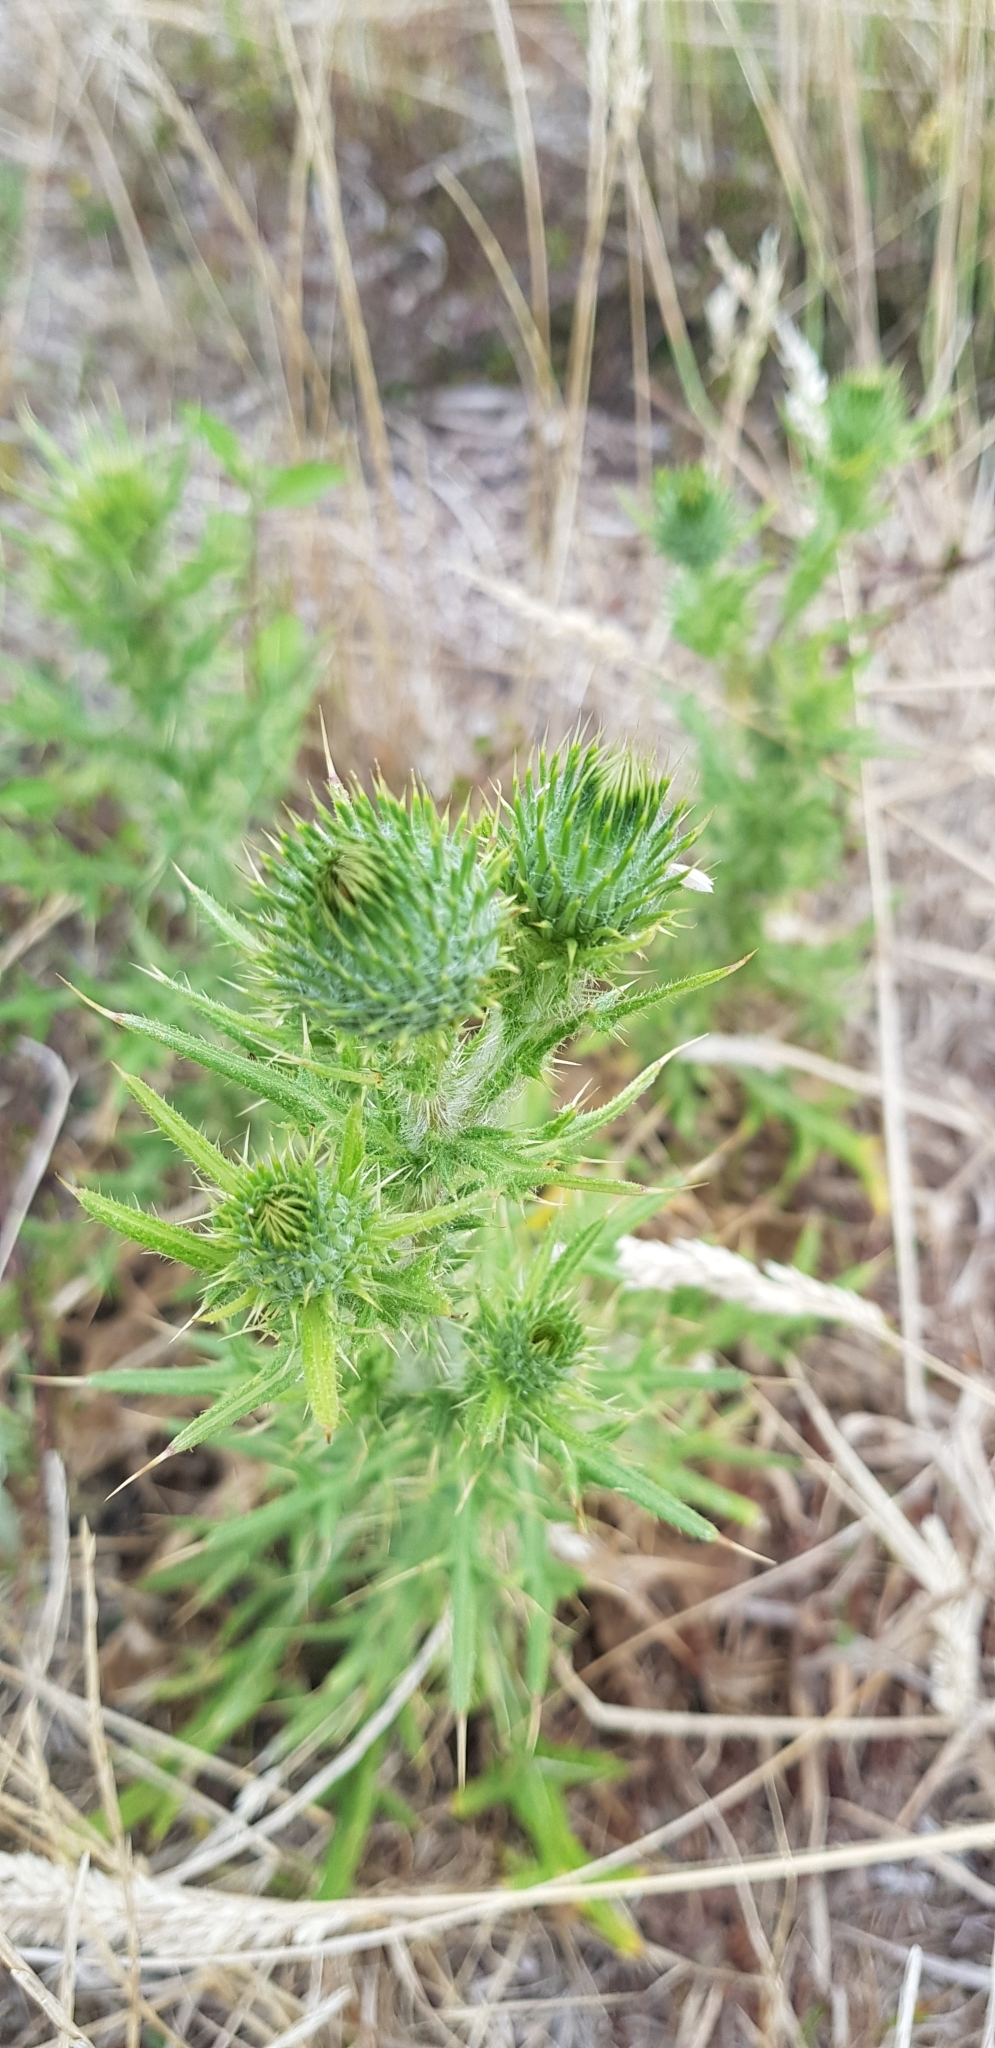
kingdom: Plantae
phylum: Tracheophyta
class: Magnoliopsida
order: Asterales
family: Asteraceae
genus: Cirsium
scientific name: Cirsium vulgare
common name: Bull thistle
